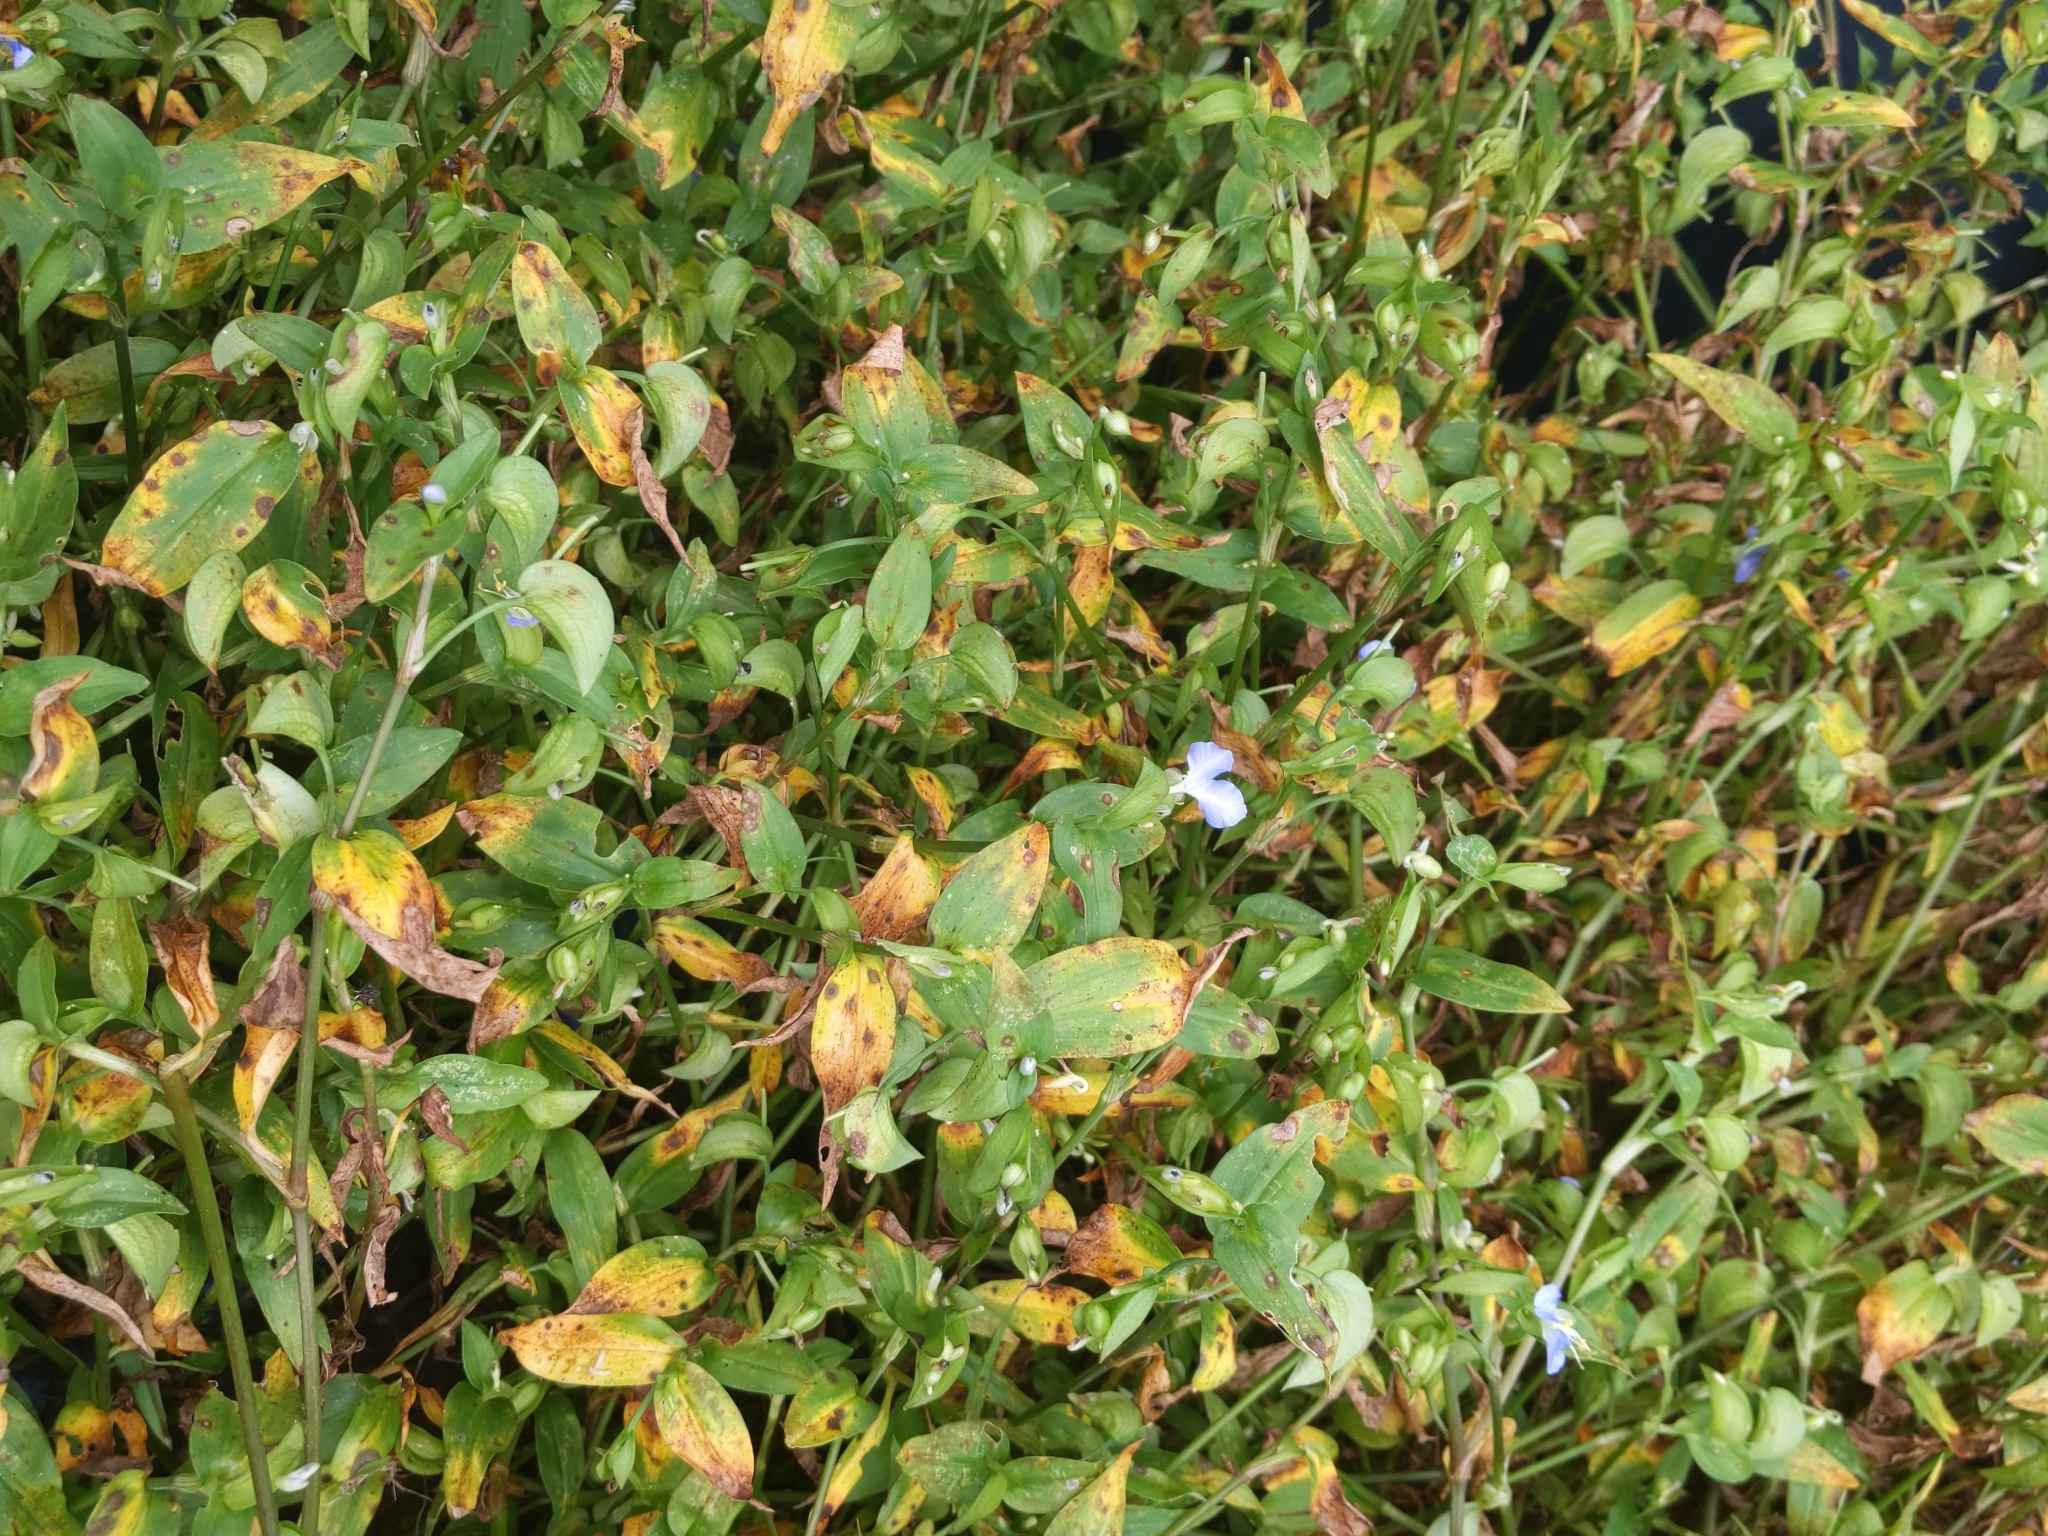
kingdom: Plantae
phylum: Tracheophyta
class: Liliopsida
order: Commelinales
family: Commelinaceae
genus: Commelina
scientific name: Commelina communis
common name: Asiatic dayflower
